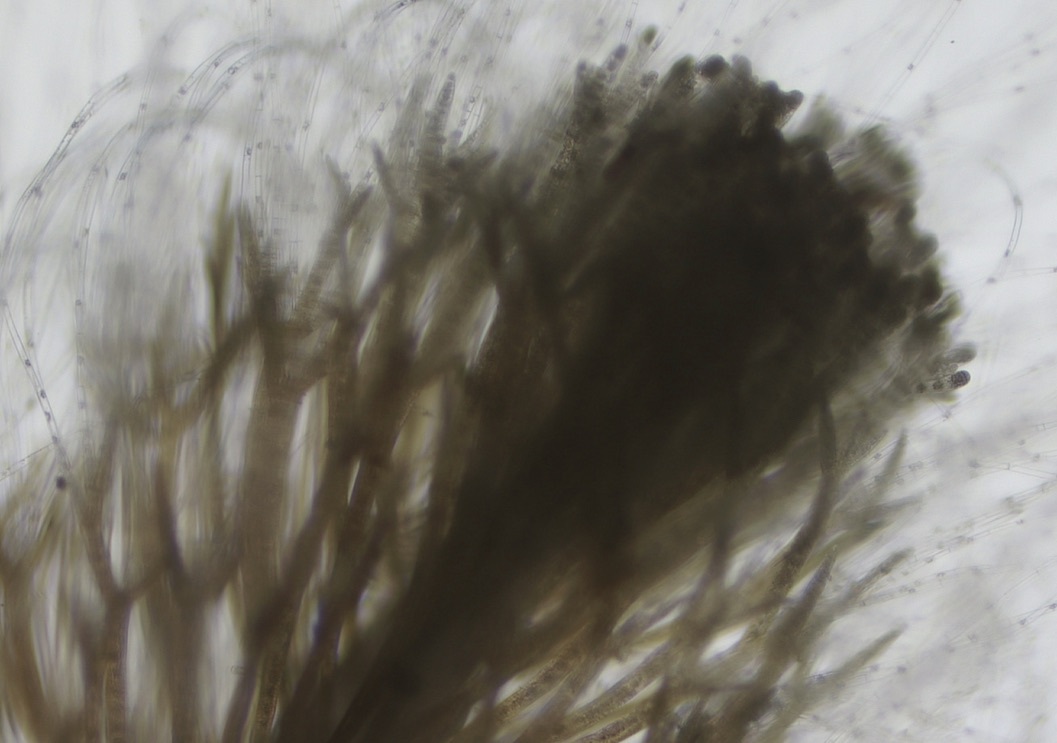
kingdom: Chromista
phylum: Ochrophyta
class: Phaeophyceae
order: Sphacelariales
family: Cladostephaceae
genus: Cladostephus
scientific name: Cladostephus spongiosus
